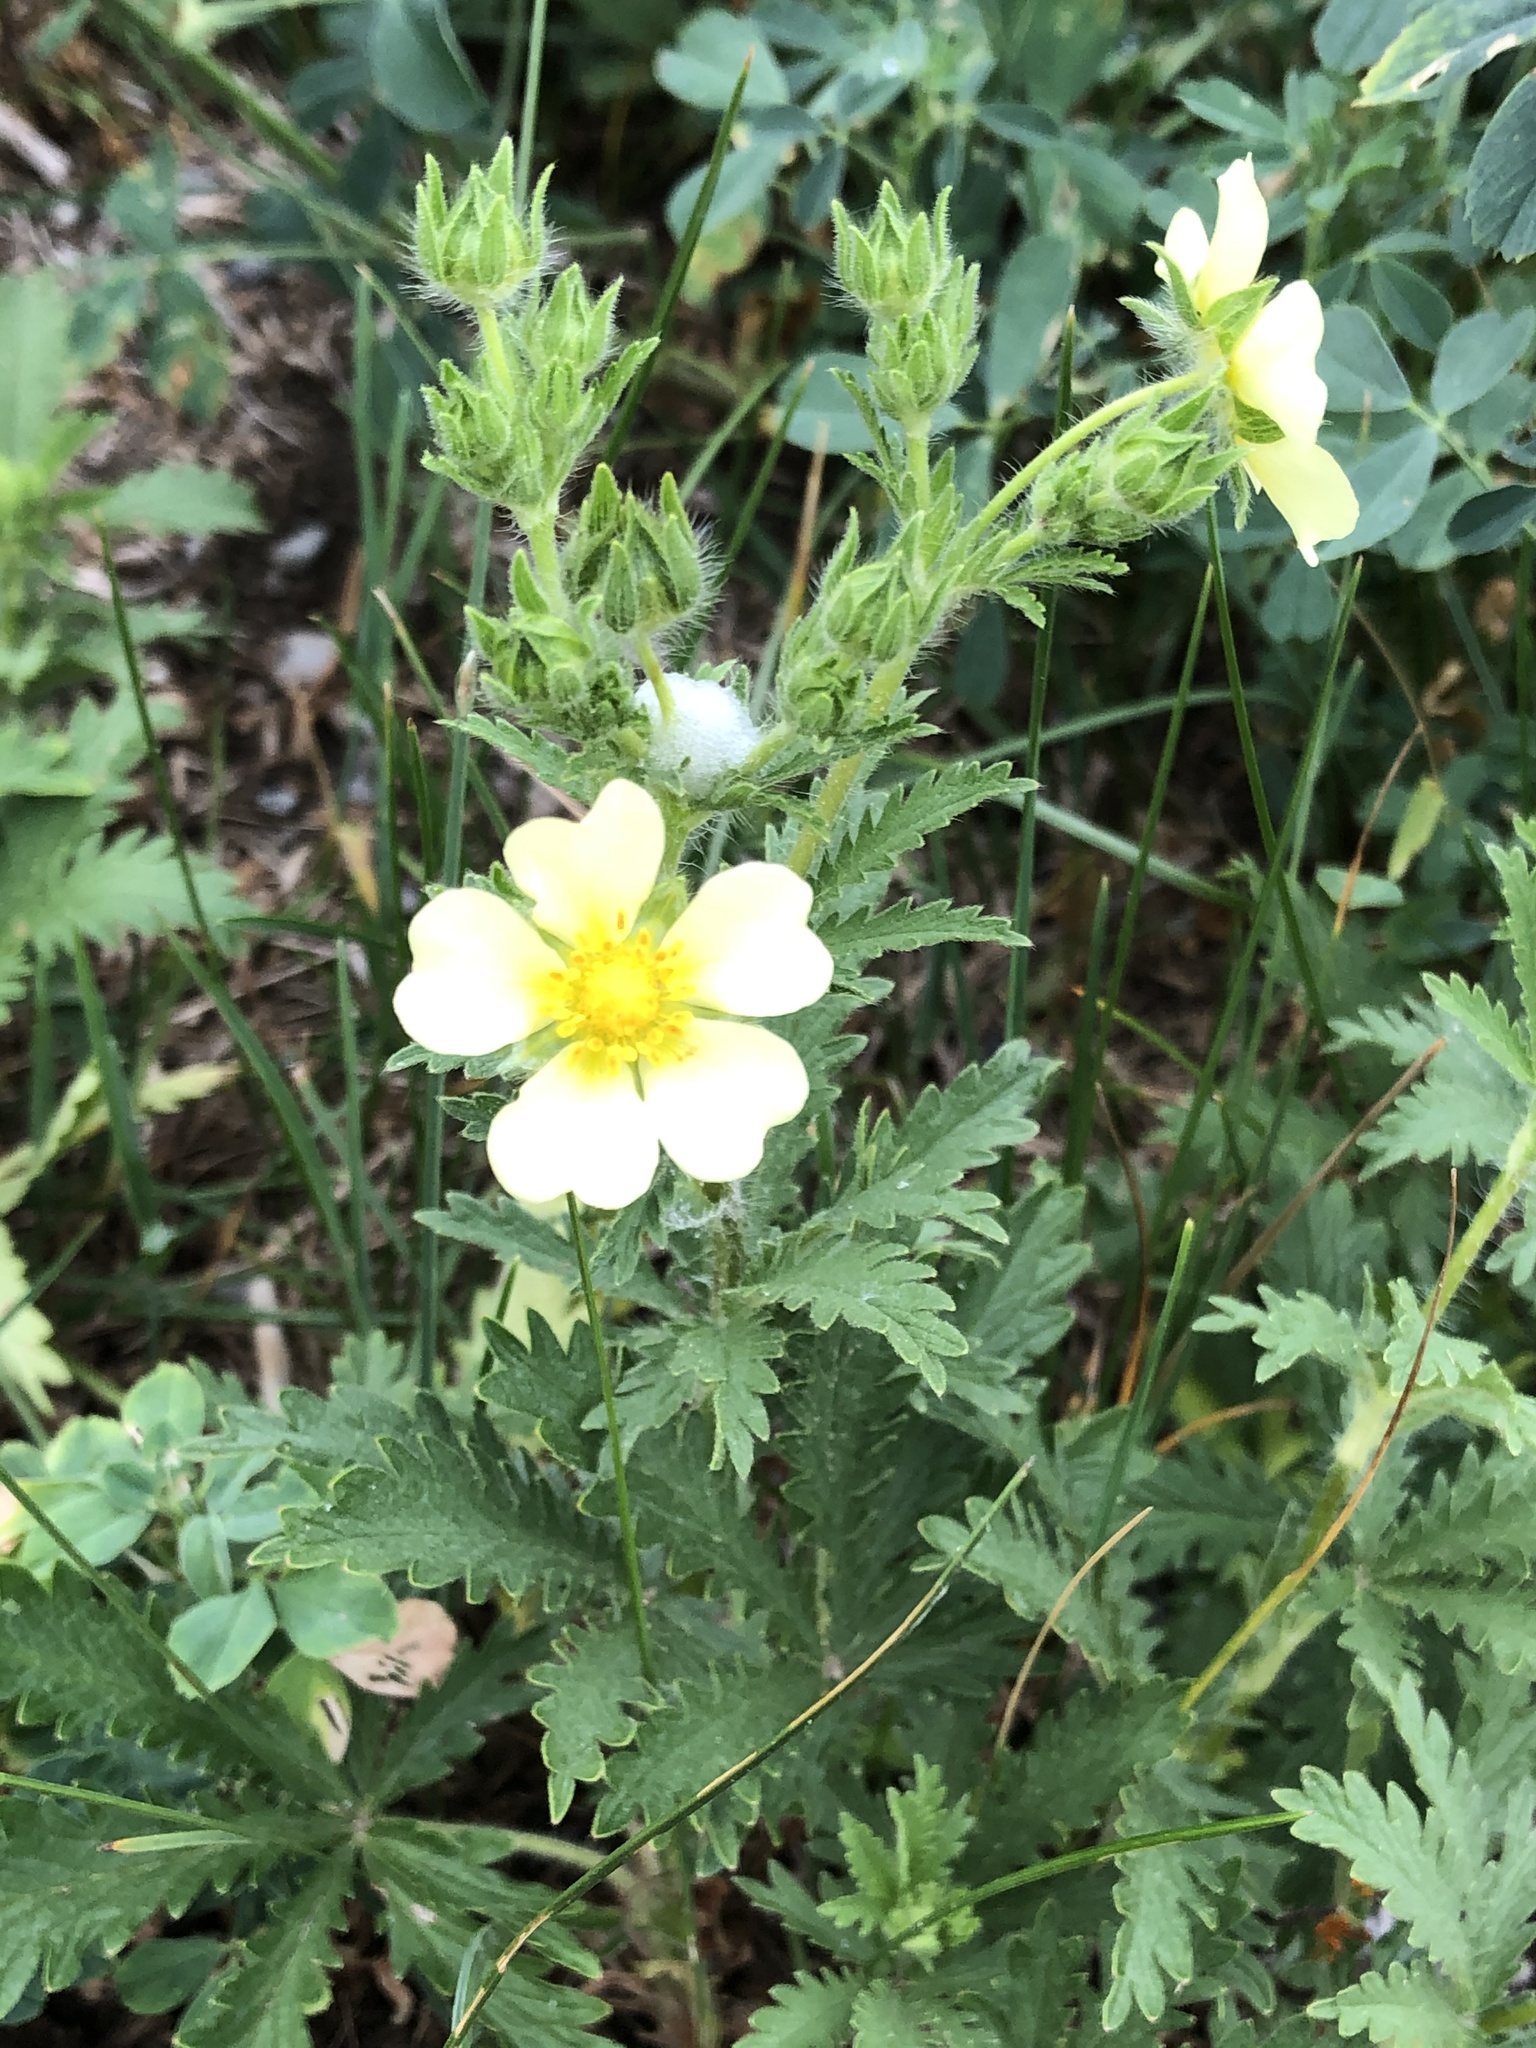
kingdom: Plantae
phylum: Tracheophyta
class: Magnoliopsida
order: Rosales
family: Rosaceae
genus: Potentilla
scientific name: Potentilla recta
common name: Sulphur cinquefoil
